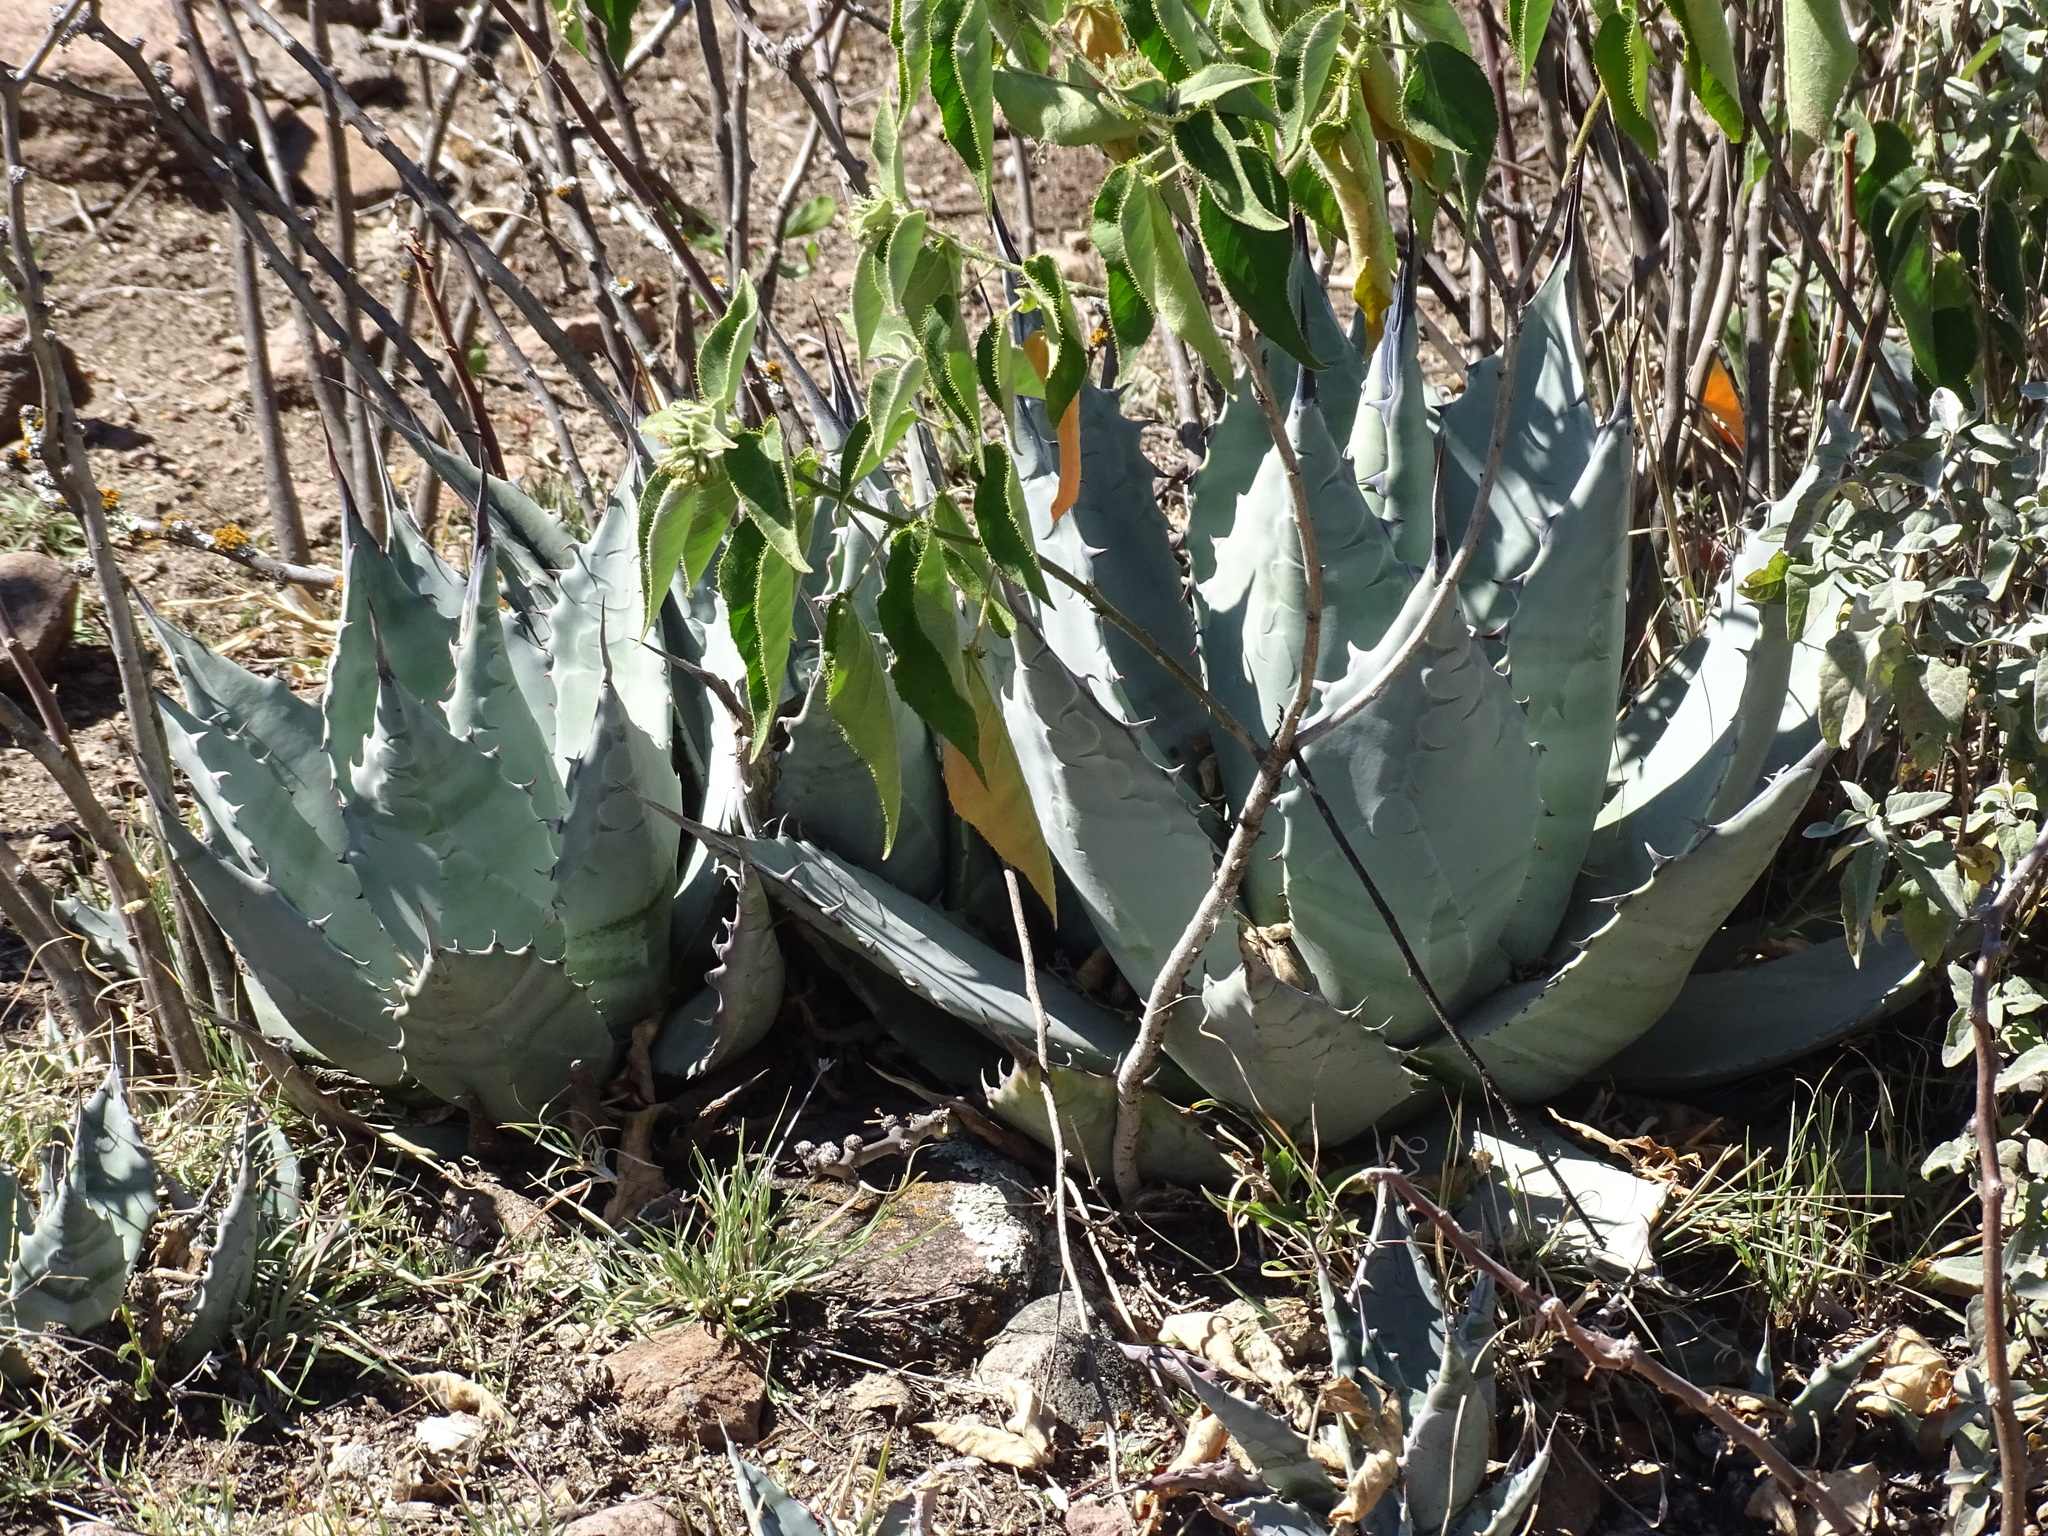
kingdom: Plantae
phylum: Tracheophyta
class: Liliopsida
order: Asparagales
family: Asparagaceae
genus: Agave
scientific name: Agave applanata
